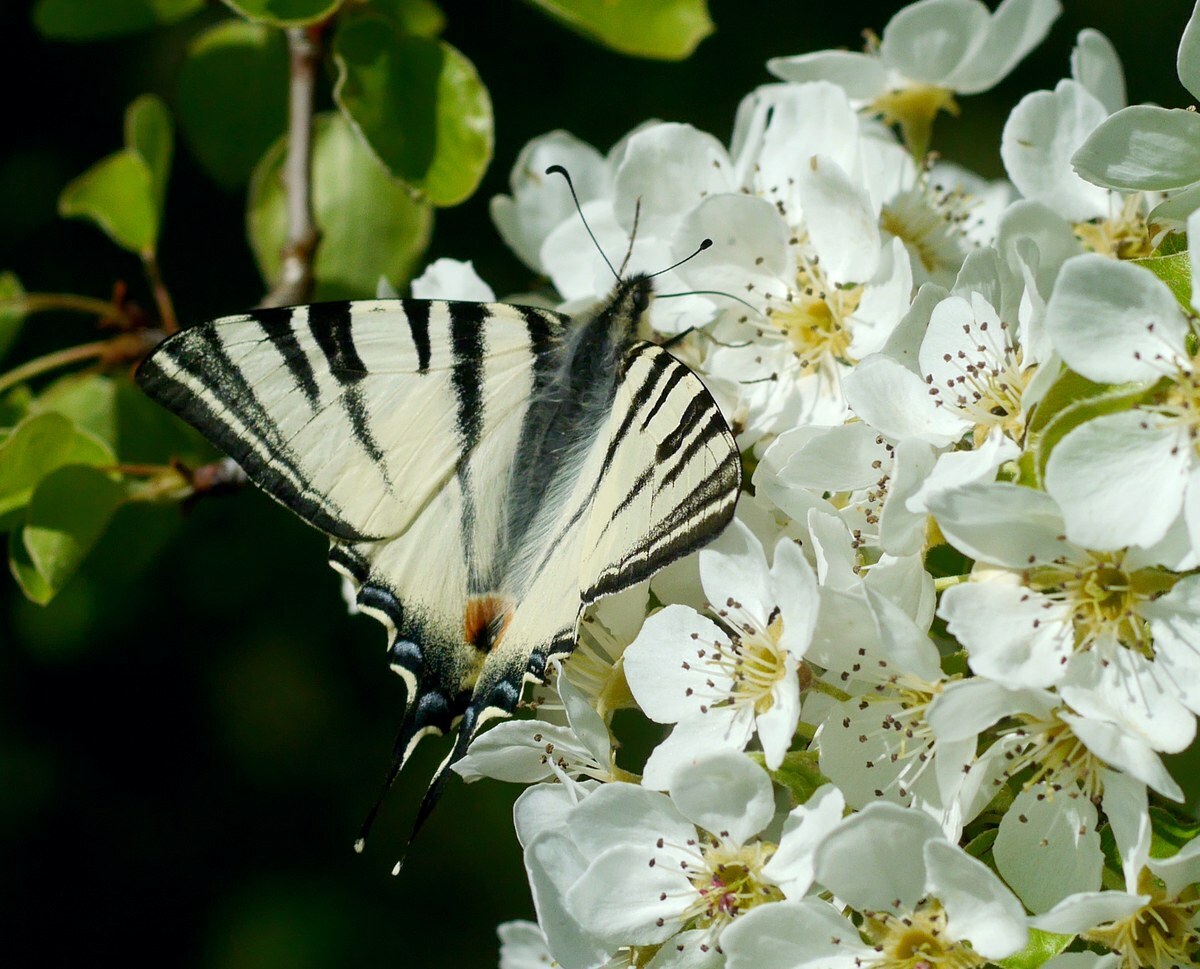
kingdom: Animalia
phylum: Arthropoda
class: Insecta
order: Lepidoptera
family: Papilionidae
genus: Iphiclides
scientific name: Iphiclides podalirius
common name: Scarce swallowtail
